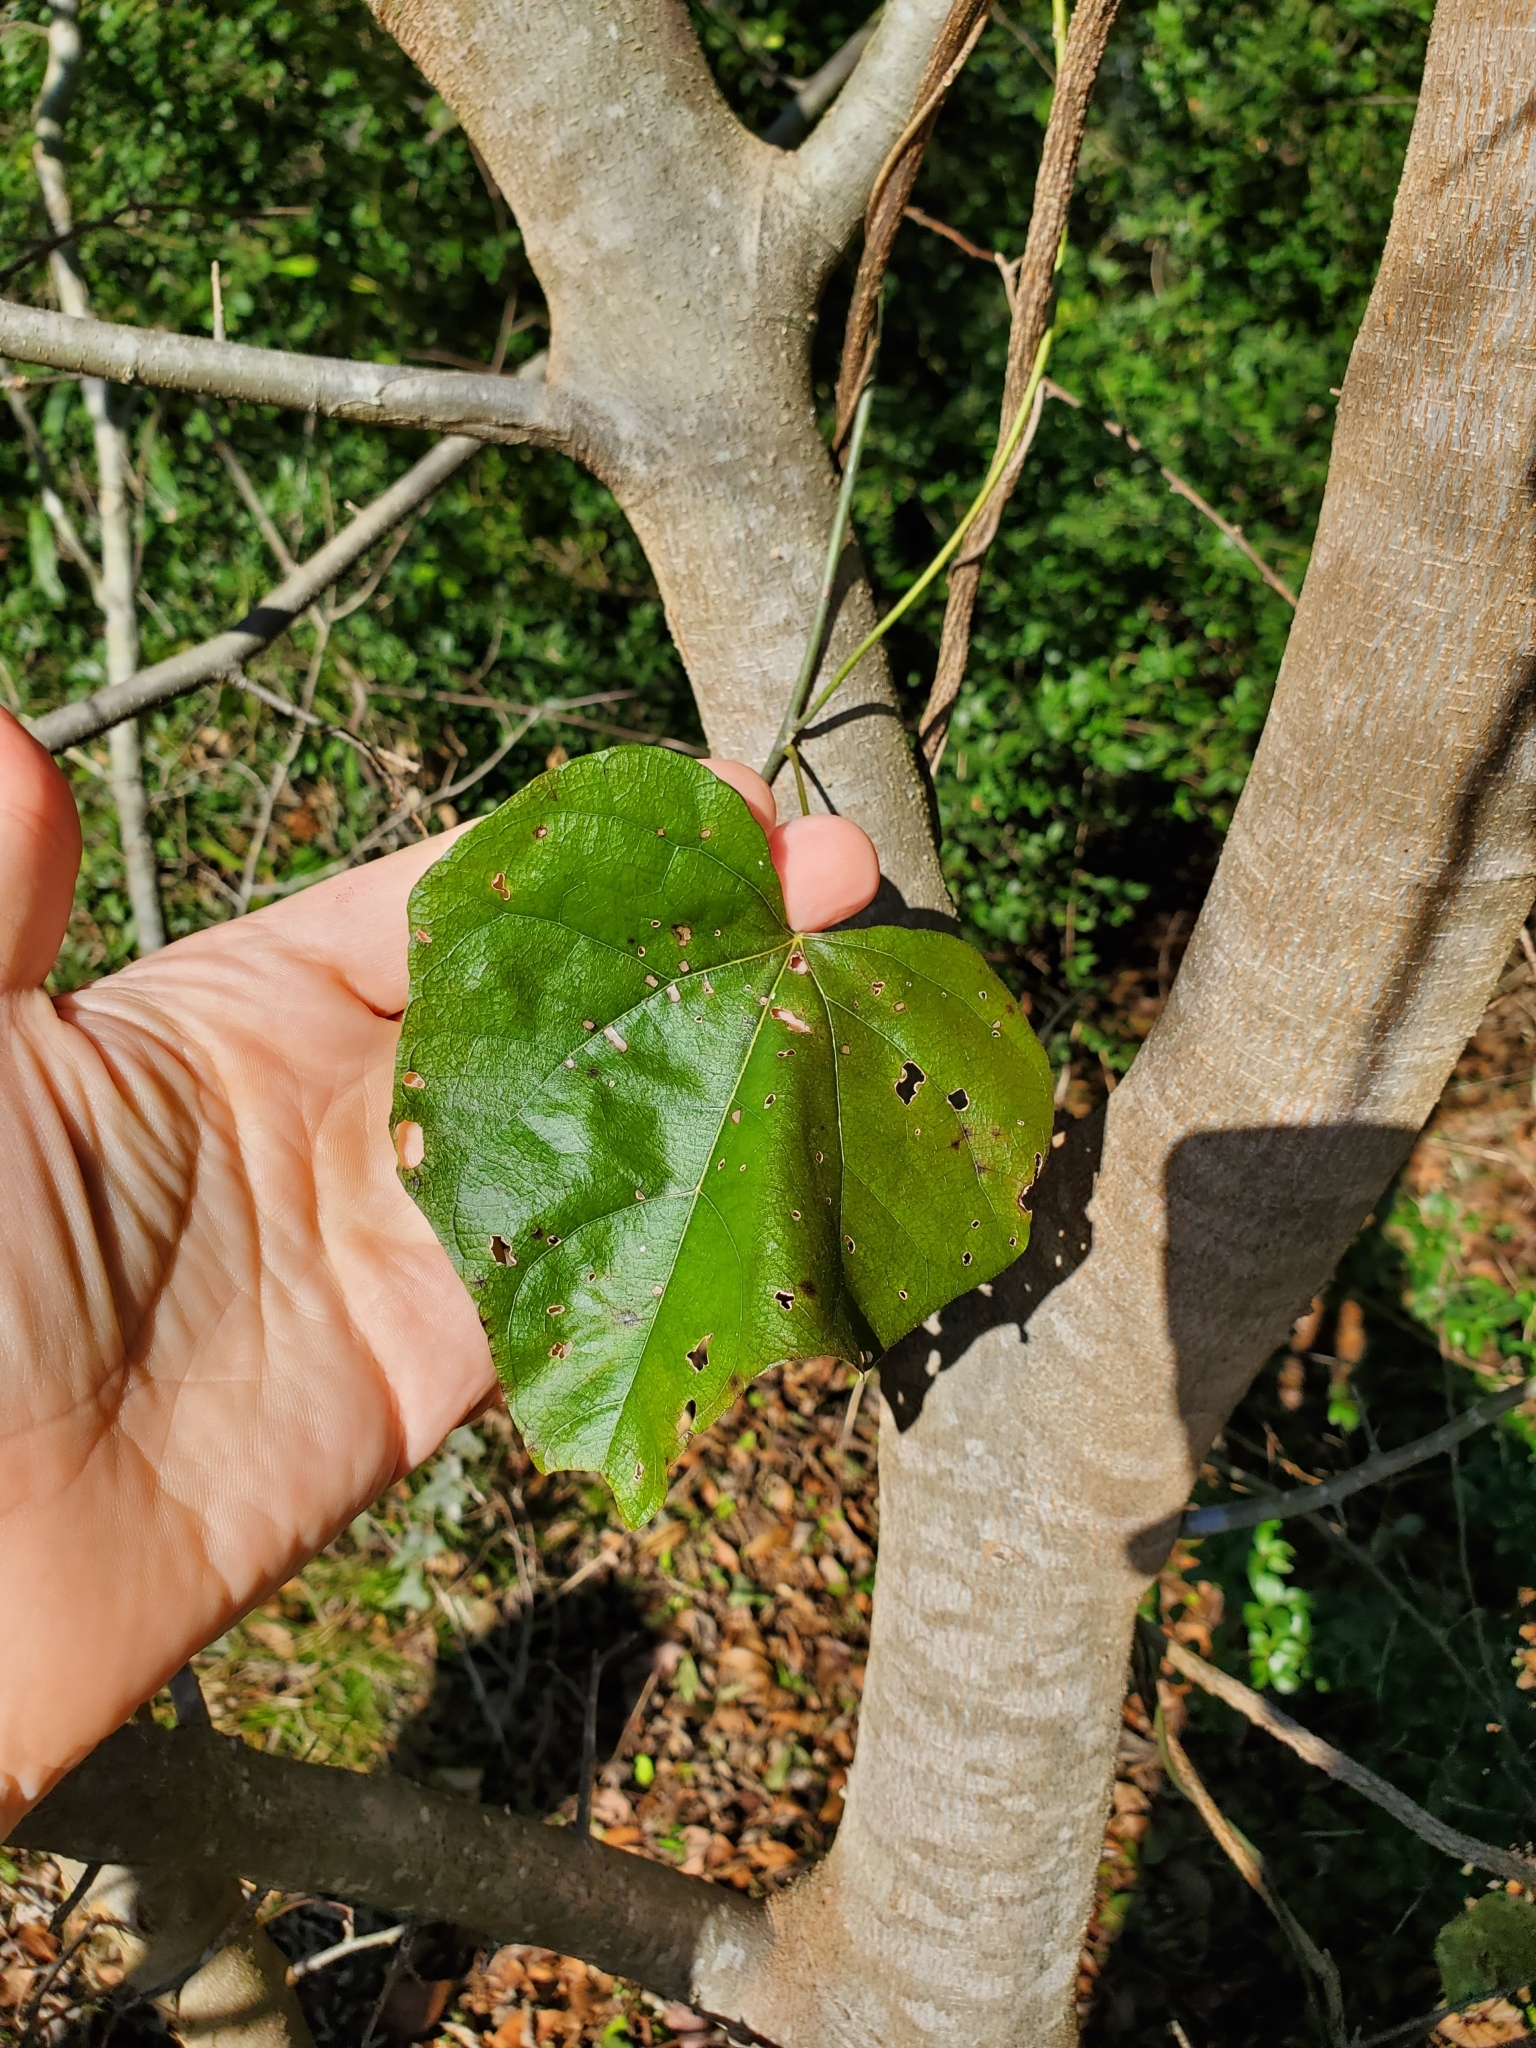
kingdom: Plantae
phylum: Tracheophyta
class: Magnoliopsida
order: Ranunculales
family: Menispermaceae
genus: Cocculus
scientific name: Cocculus carolinus
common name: Carolina moonseed
